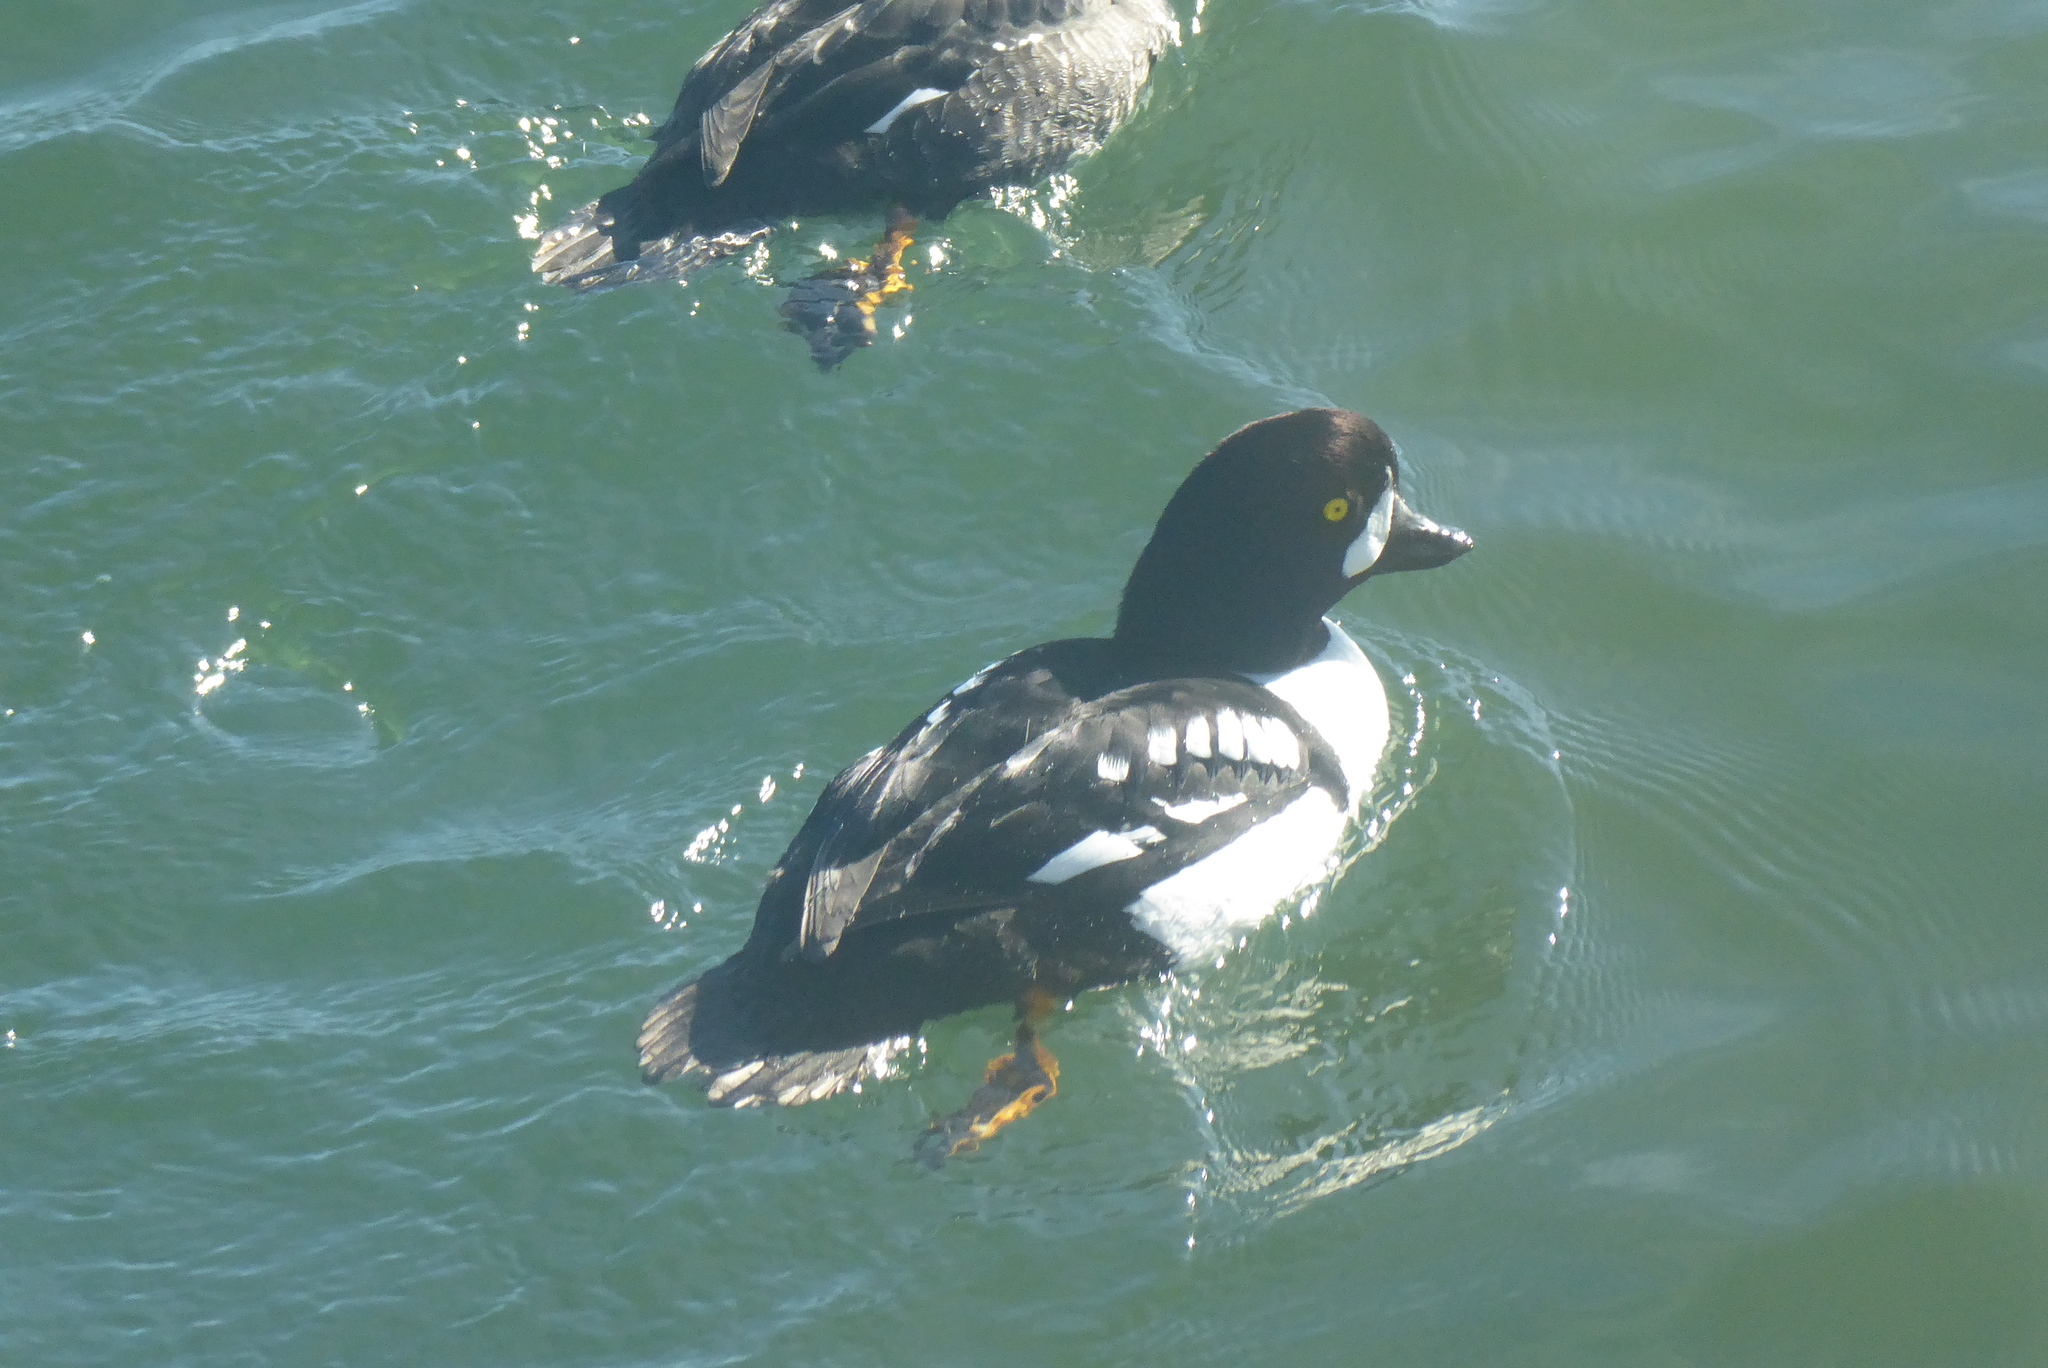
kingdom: Animalia
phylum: Chordata
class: Aves
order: Anseriformes
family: Anatidae
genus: Bucephala
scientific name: Bucephala islandica
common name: Barrow's goldeneye
